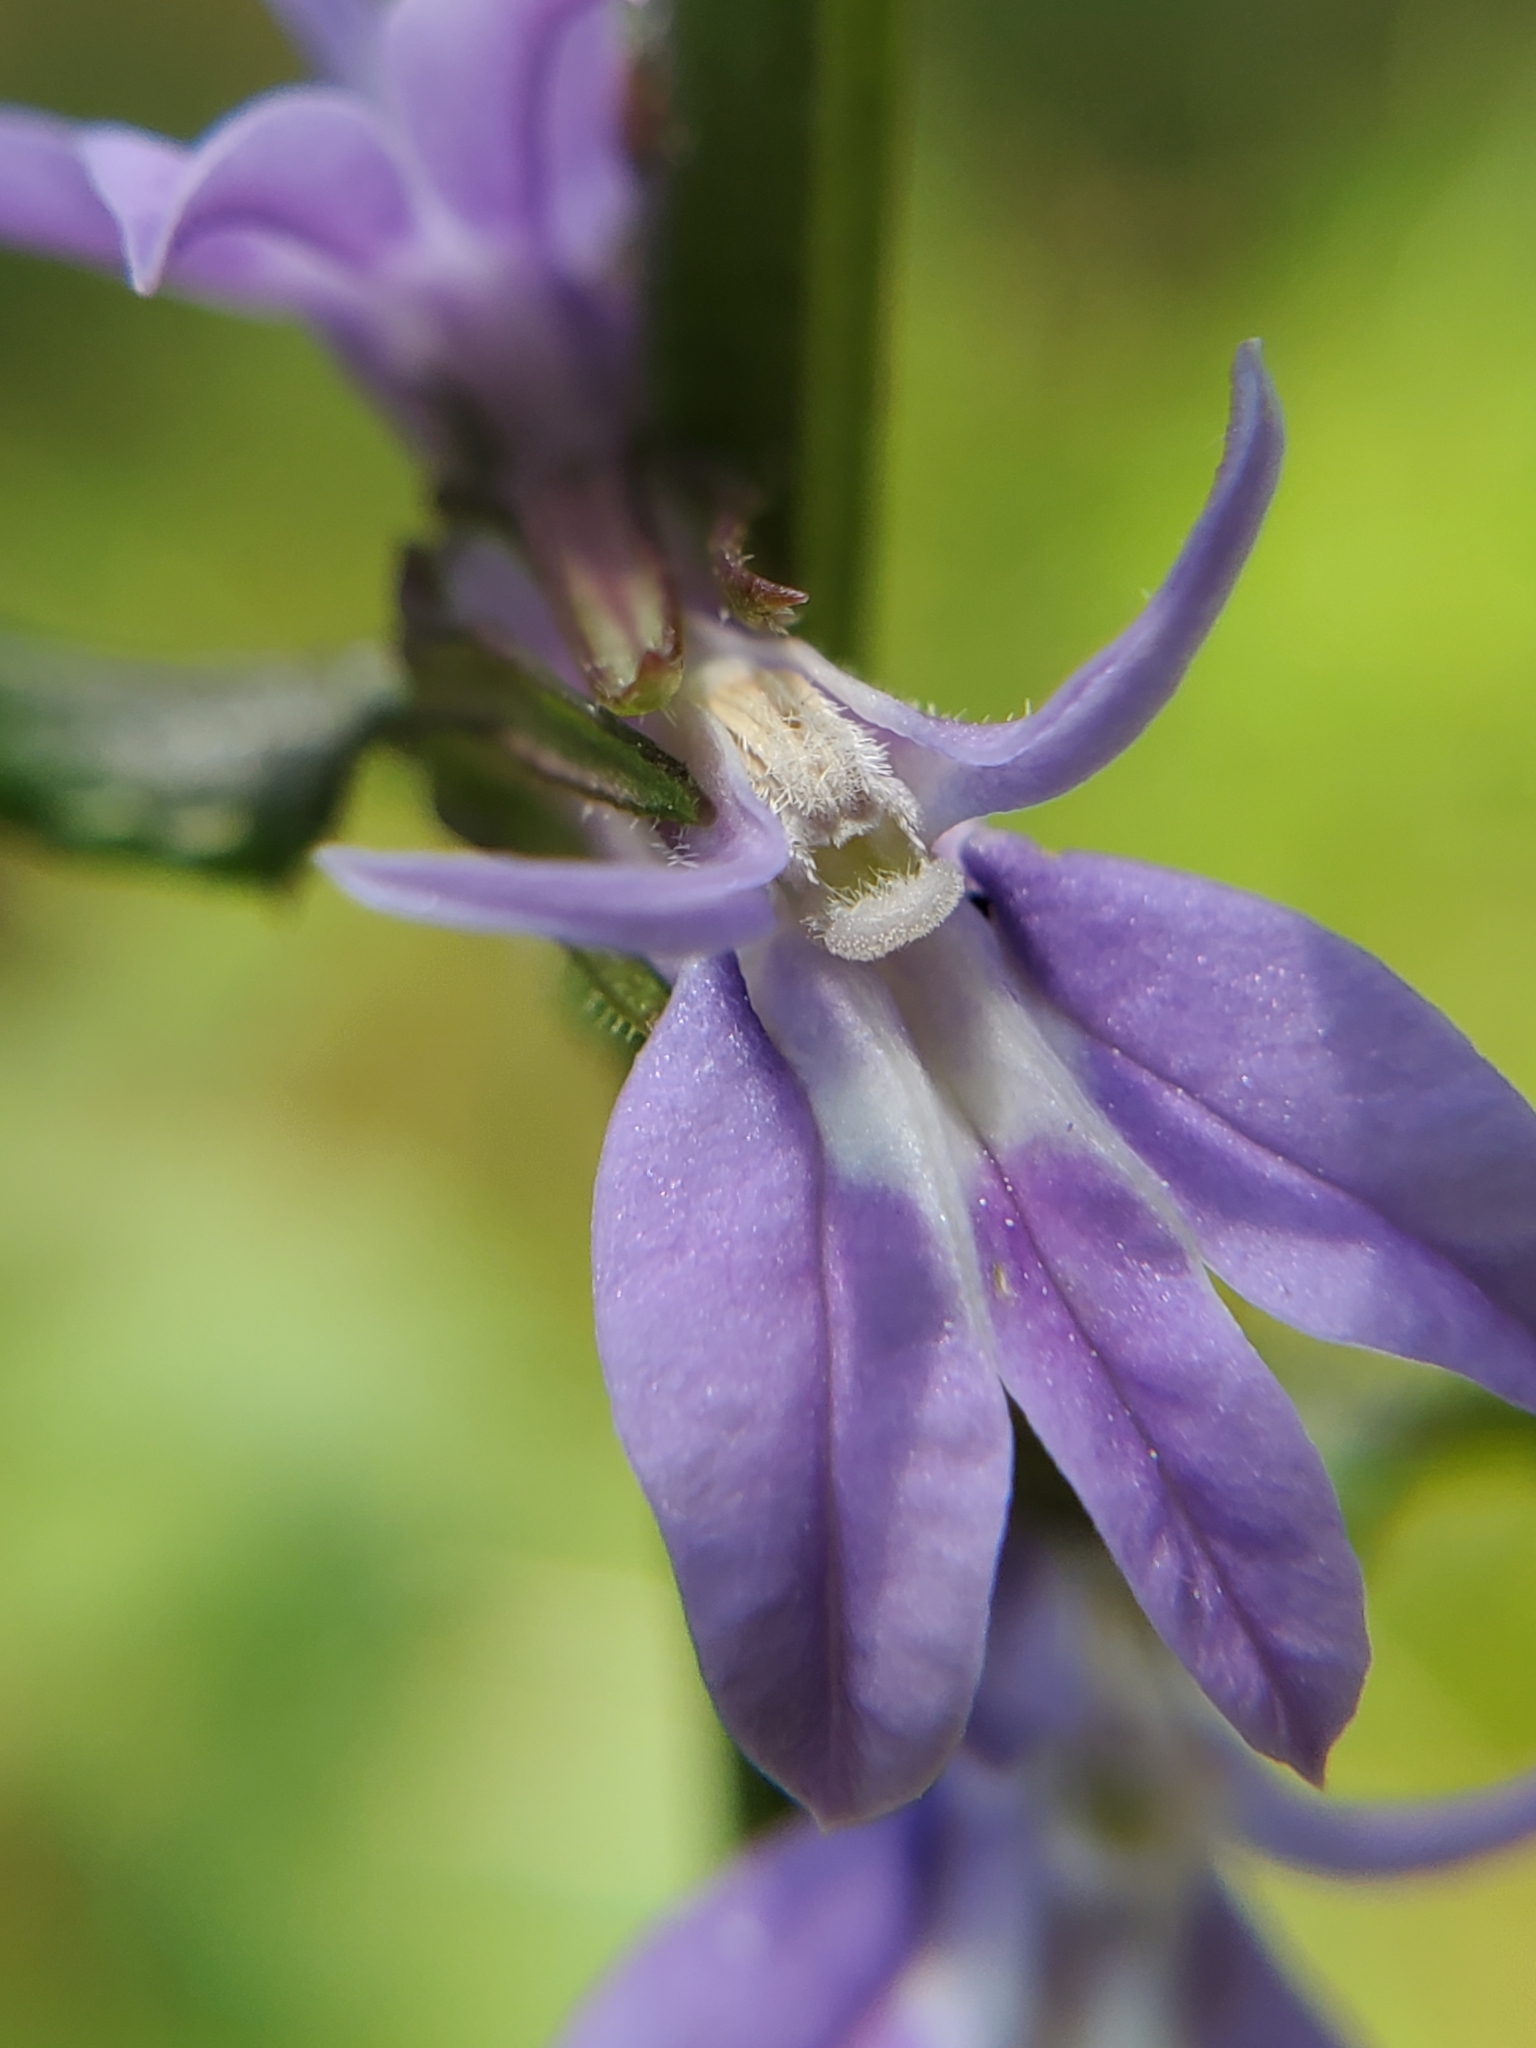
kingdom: Plantae
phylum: Tracheophyta
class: Magnoliopsida
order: Asterales
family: Campanulaceae
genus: Lobelia
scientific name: Lobelia puberula
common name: Purple dewdrop
